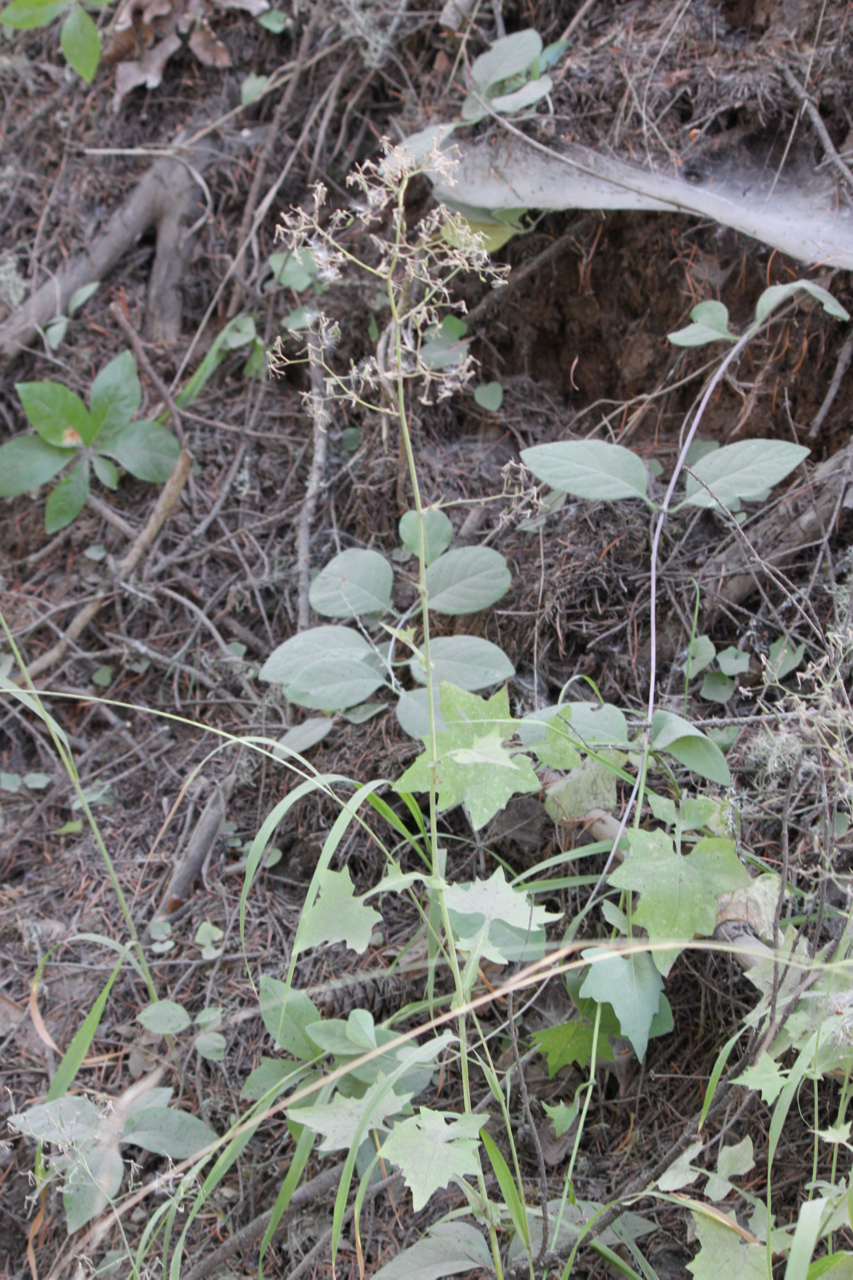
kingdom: Plantae
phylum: Tracheophyta
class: Magnoliopsida
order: Asterales
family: Asteraceae
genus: Mycelis
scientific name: Mycelis muralis
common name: Wall lettuce
